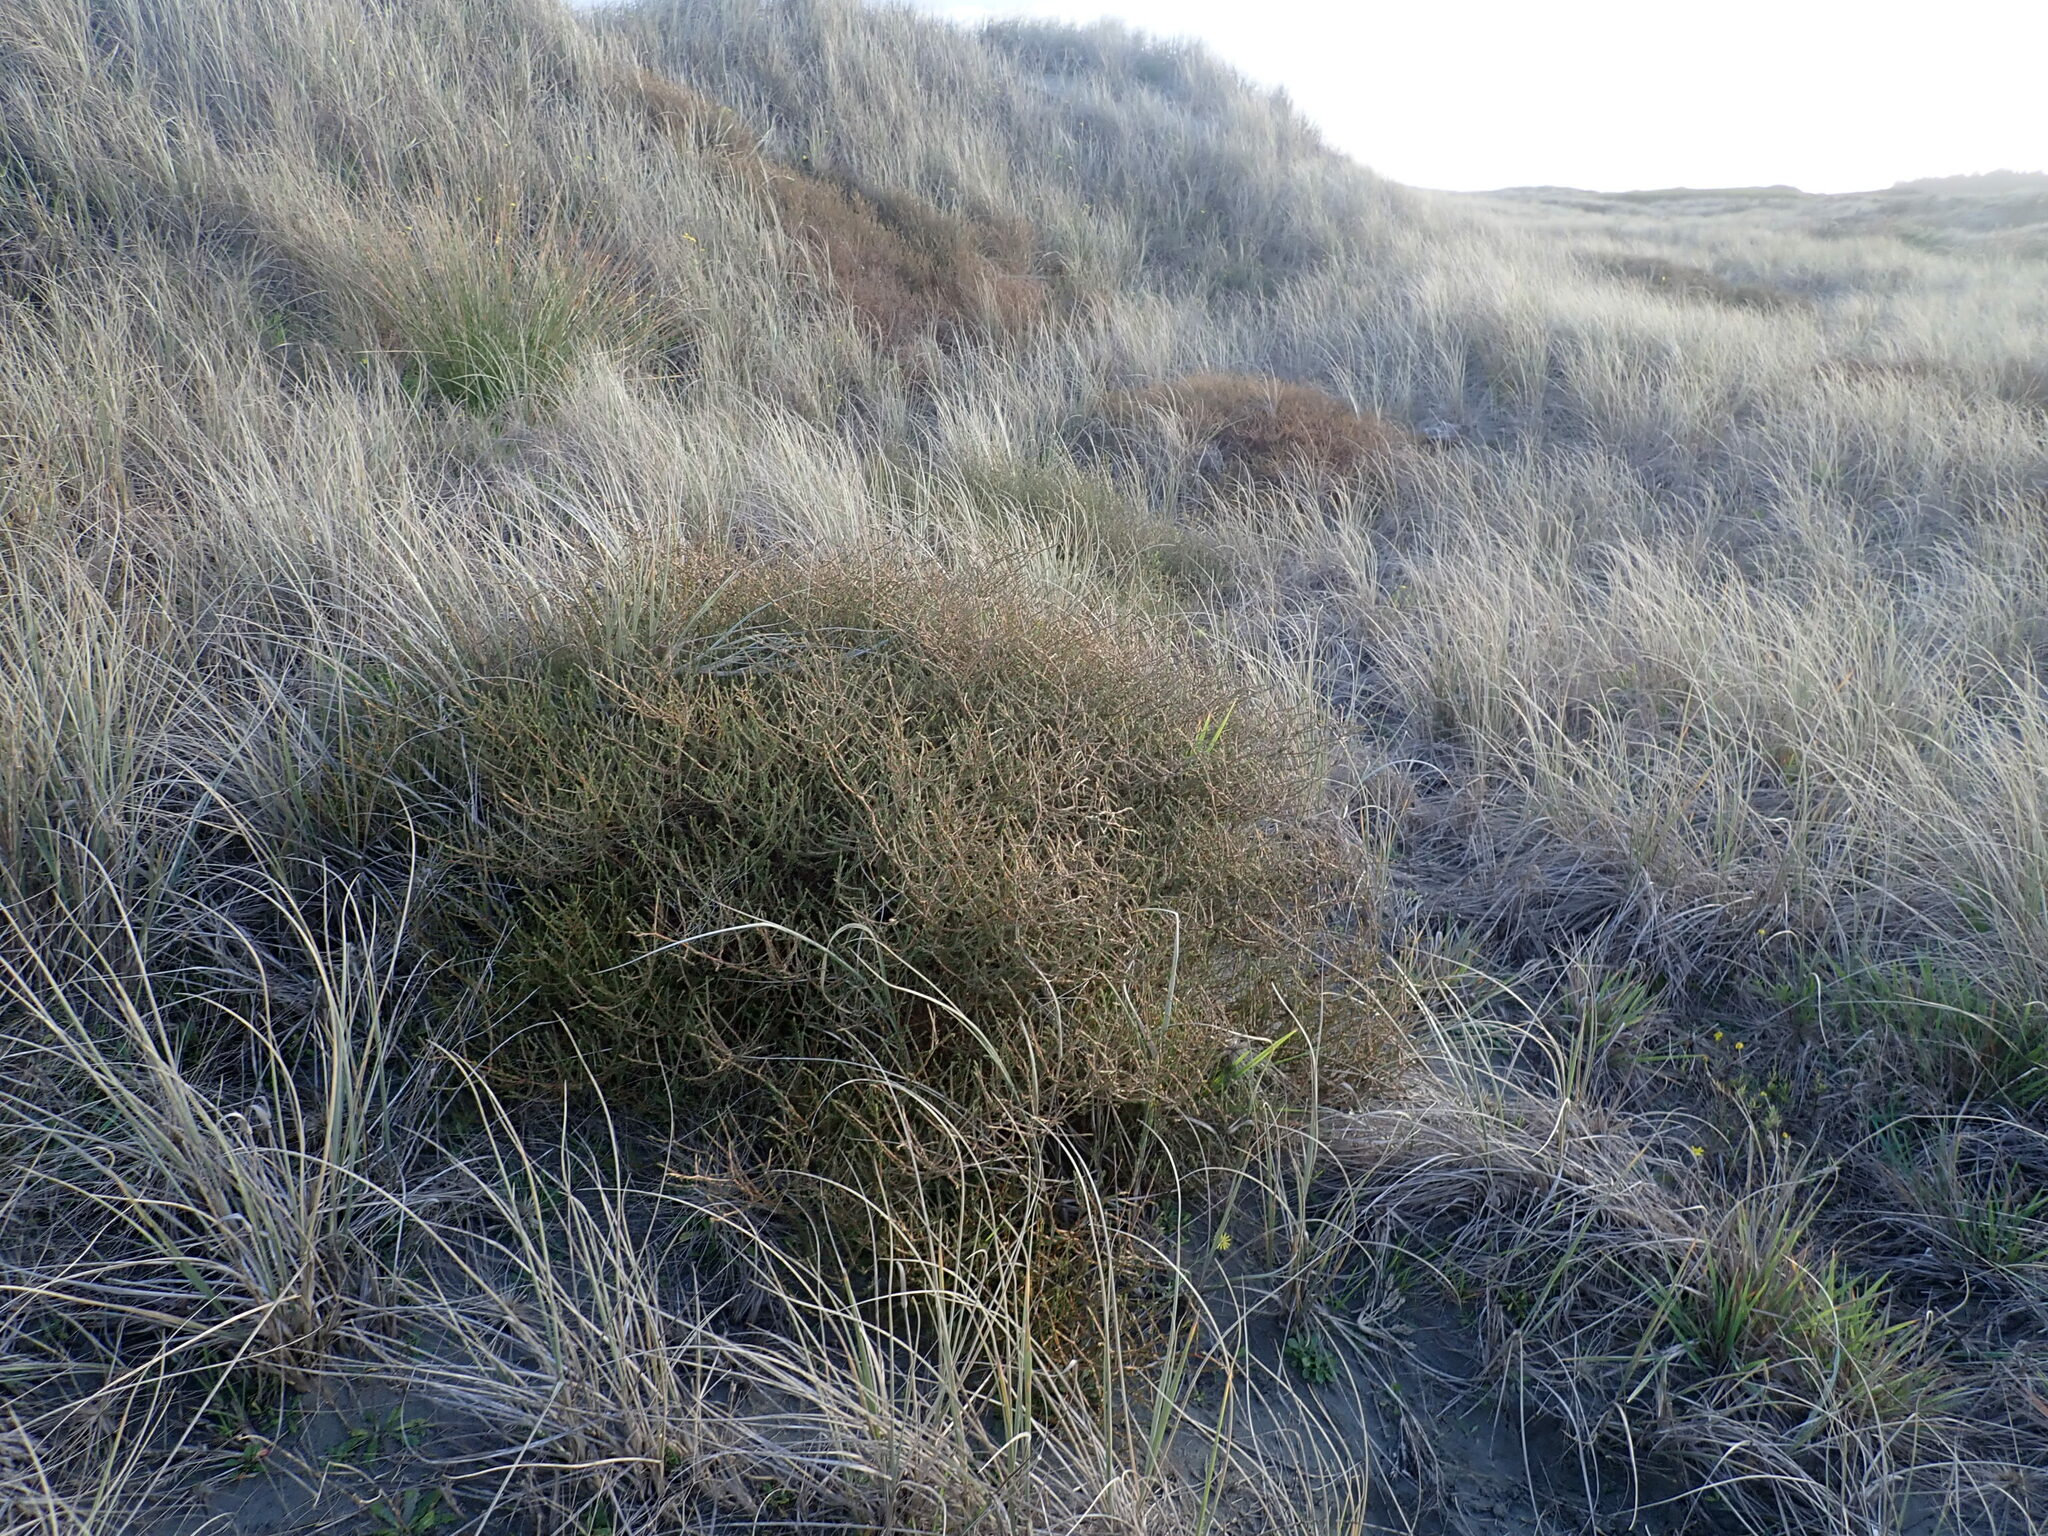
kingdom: Plantae
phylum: Tracheophyta
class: Magnoliopsida
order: Gentianales
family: Rubiaceae
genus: Coprosma
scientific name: Coprosma acerosa
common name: Sand coprosma
